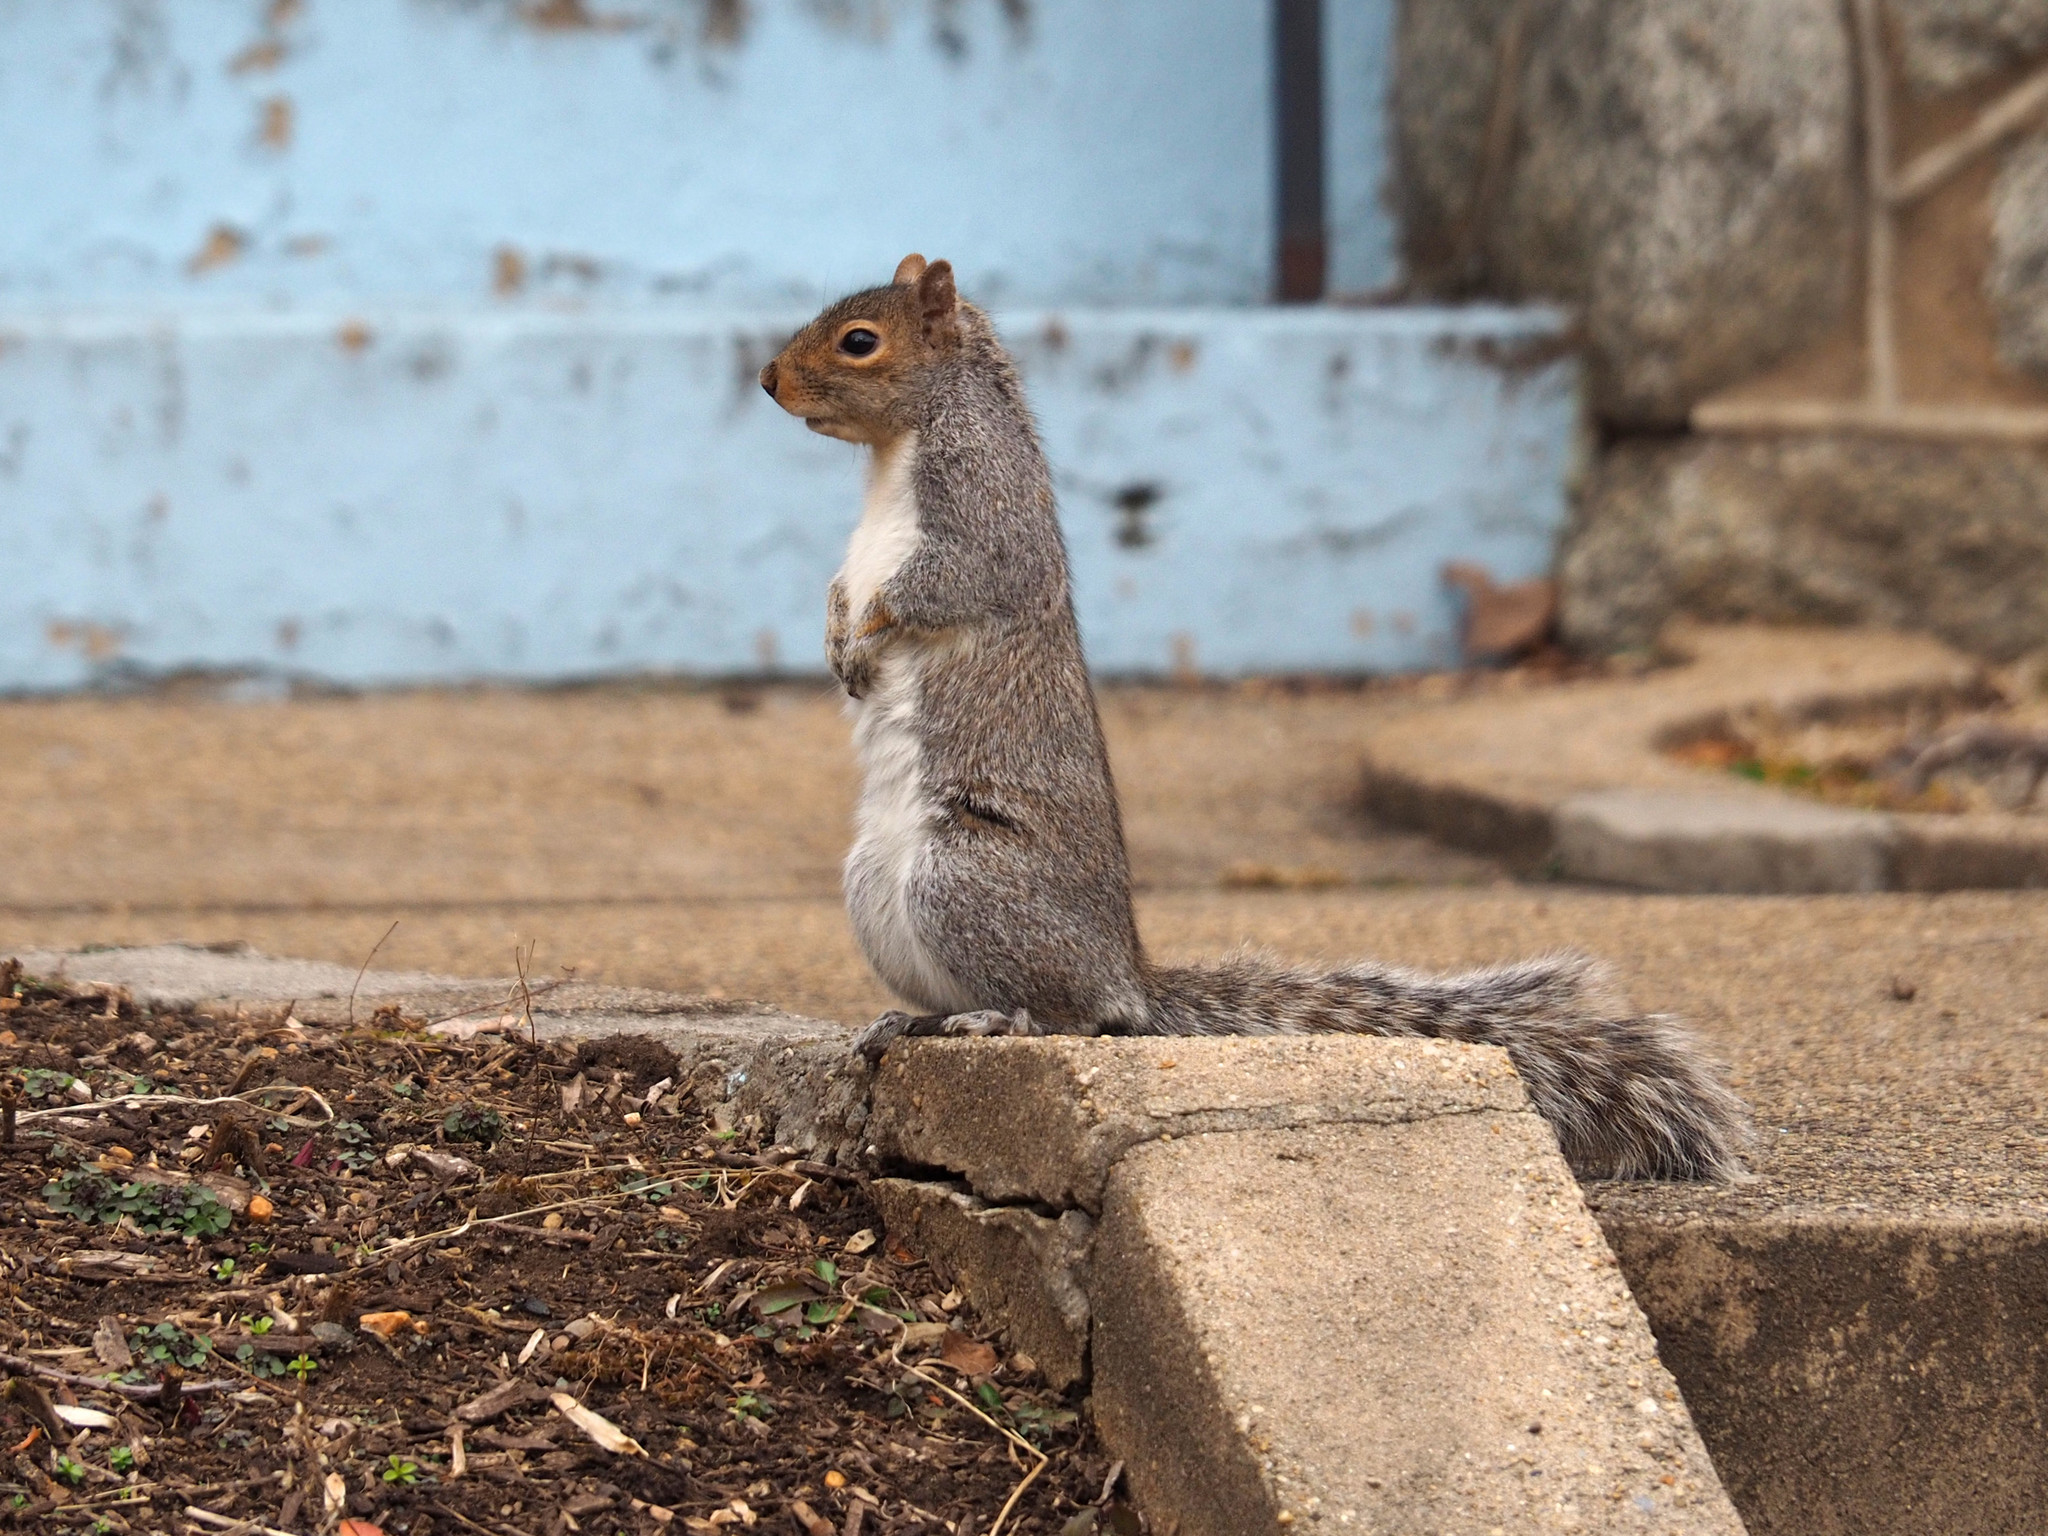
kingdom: Animalia
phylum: Chordata
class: Mammalia
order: Rodentia
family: Sciuridae
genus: Sciurus
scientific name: Sciurus carolinensis
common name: Eastern gray squirrel
